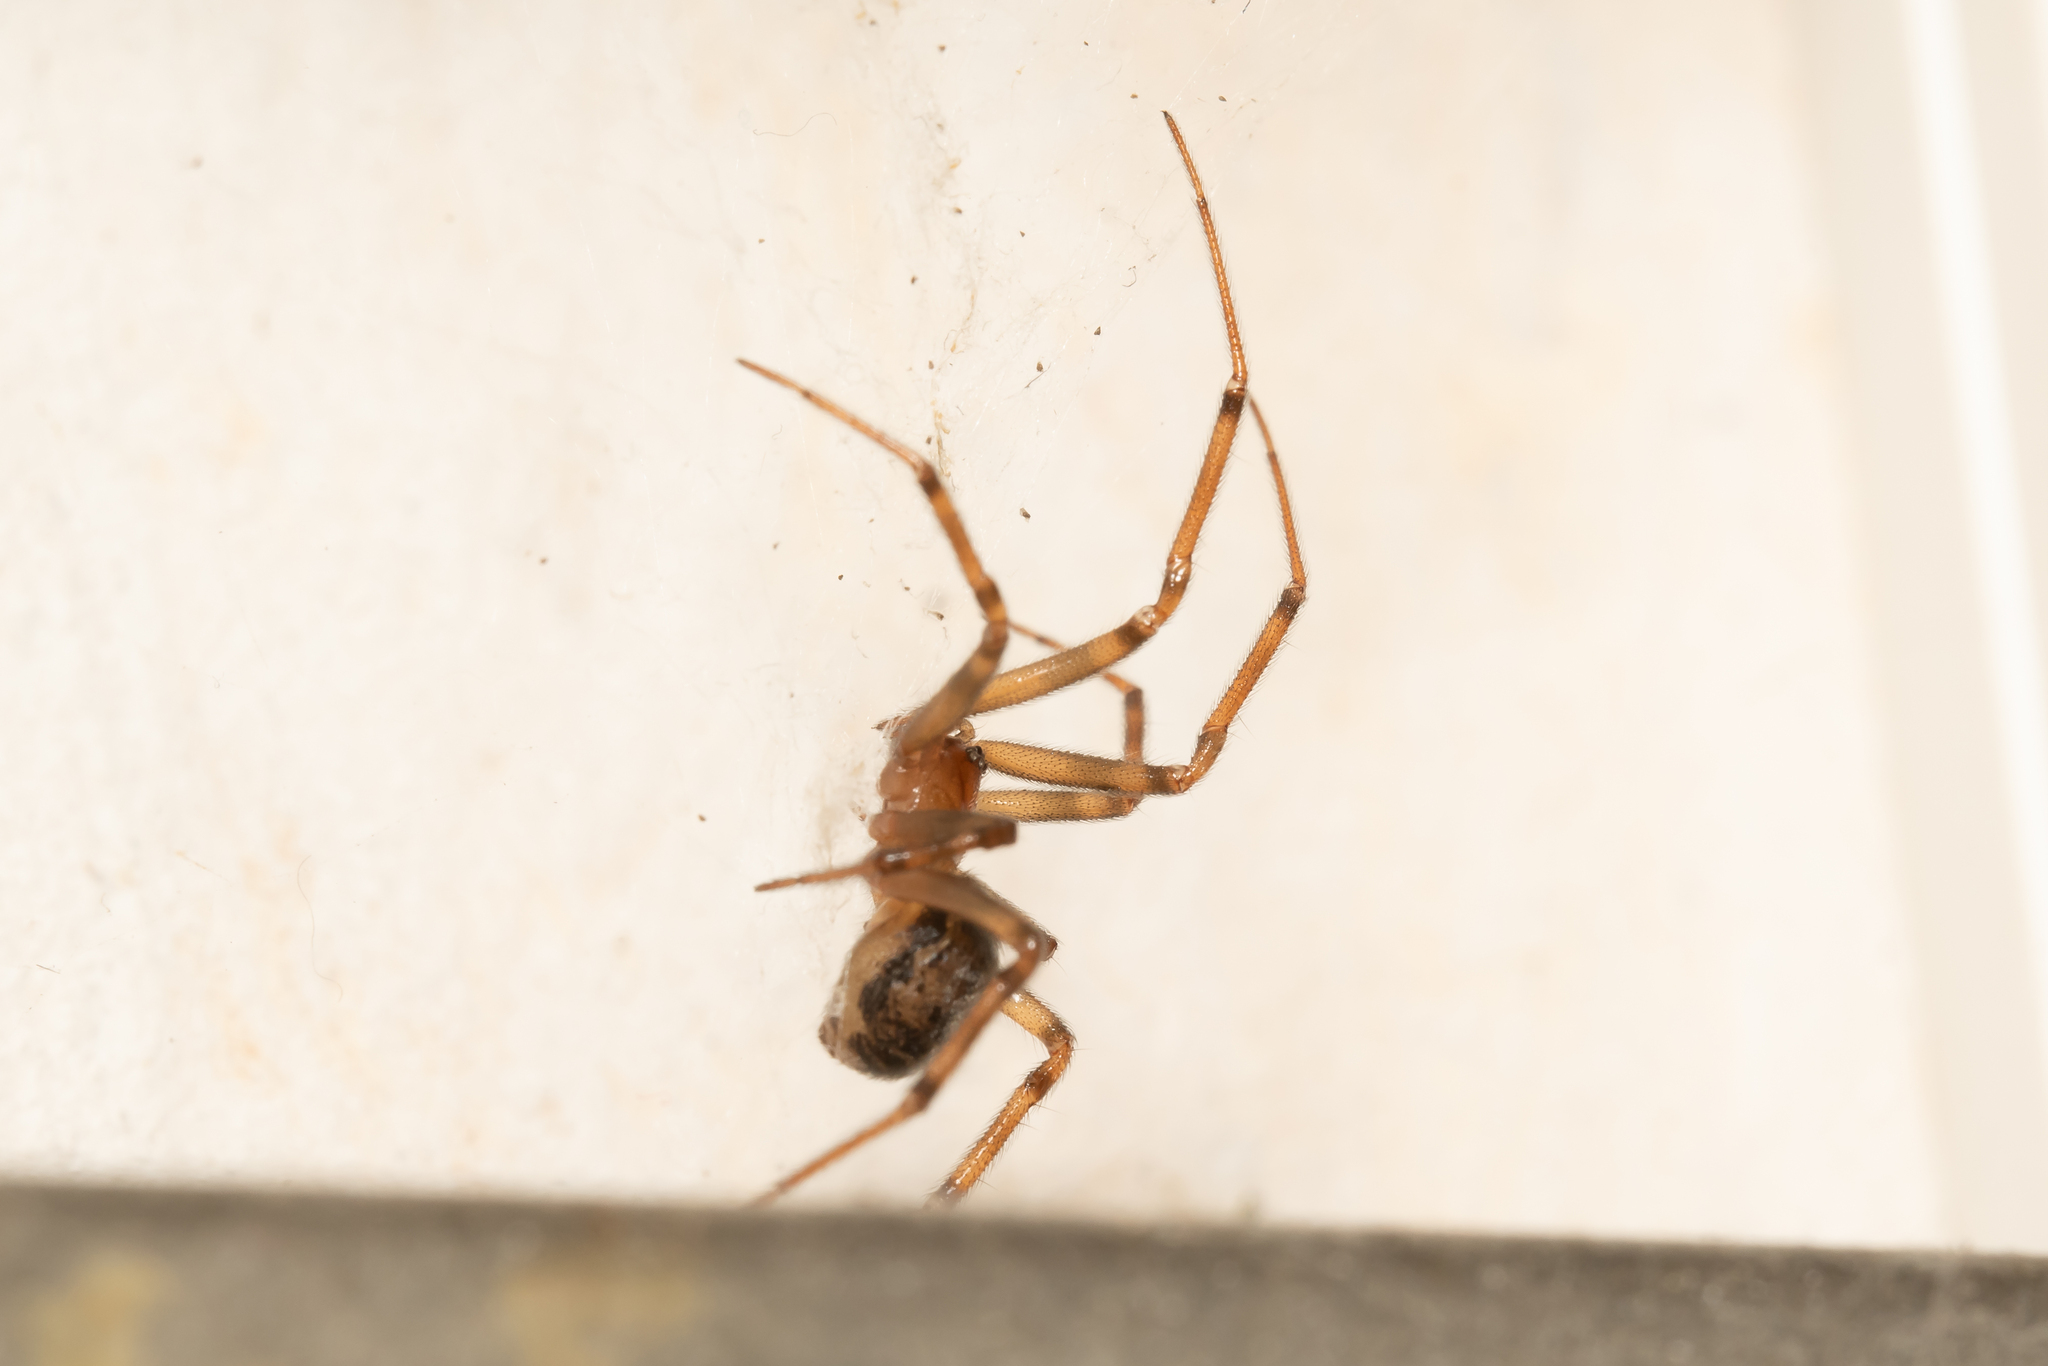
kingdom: Animalia
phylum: Arthropoda
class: Arachnida
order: Araneae
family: Theridiidae
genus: Steatoda
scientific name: Steatoda castanea
